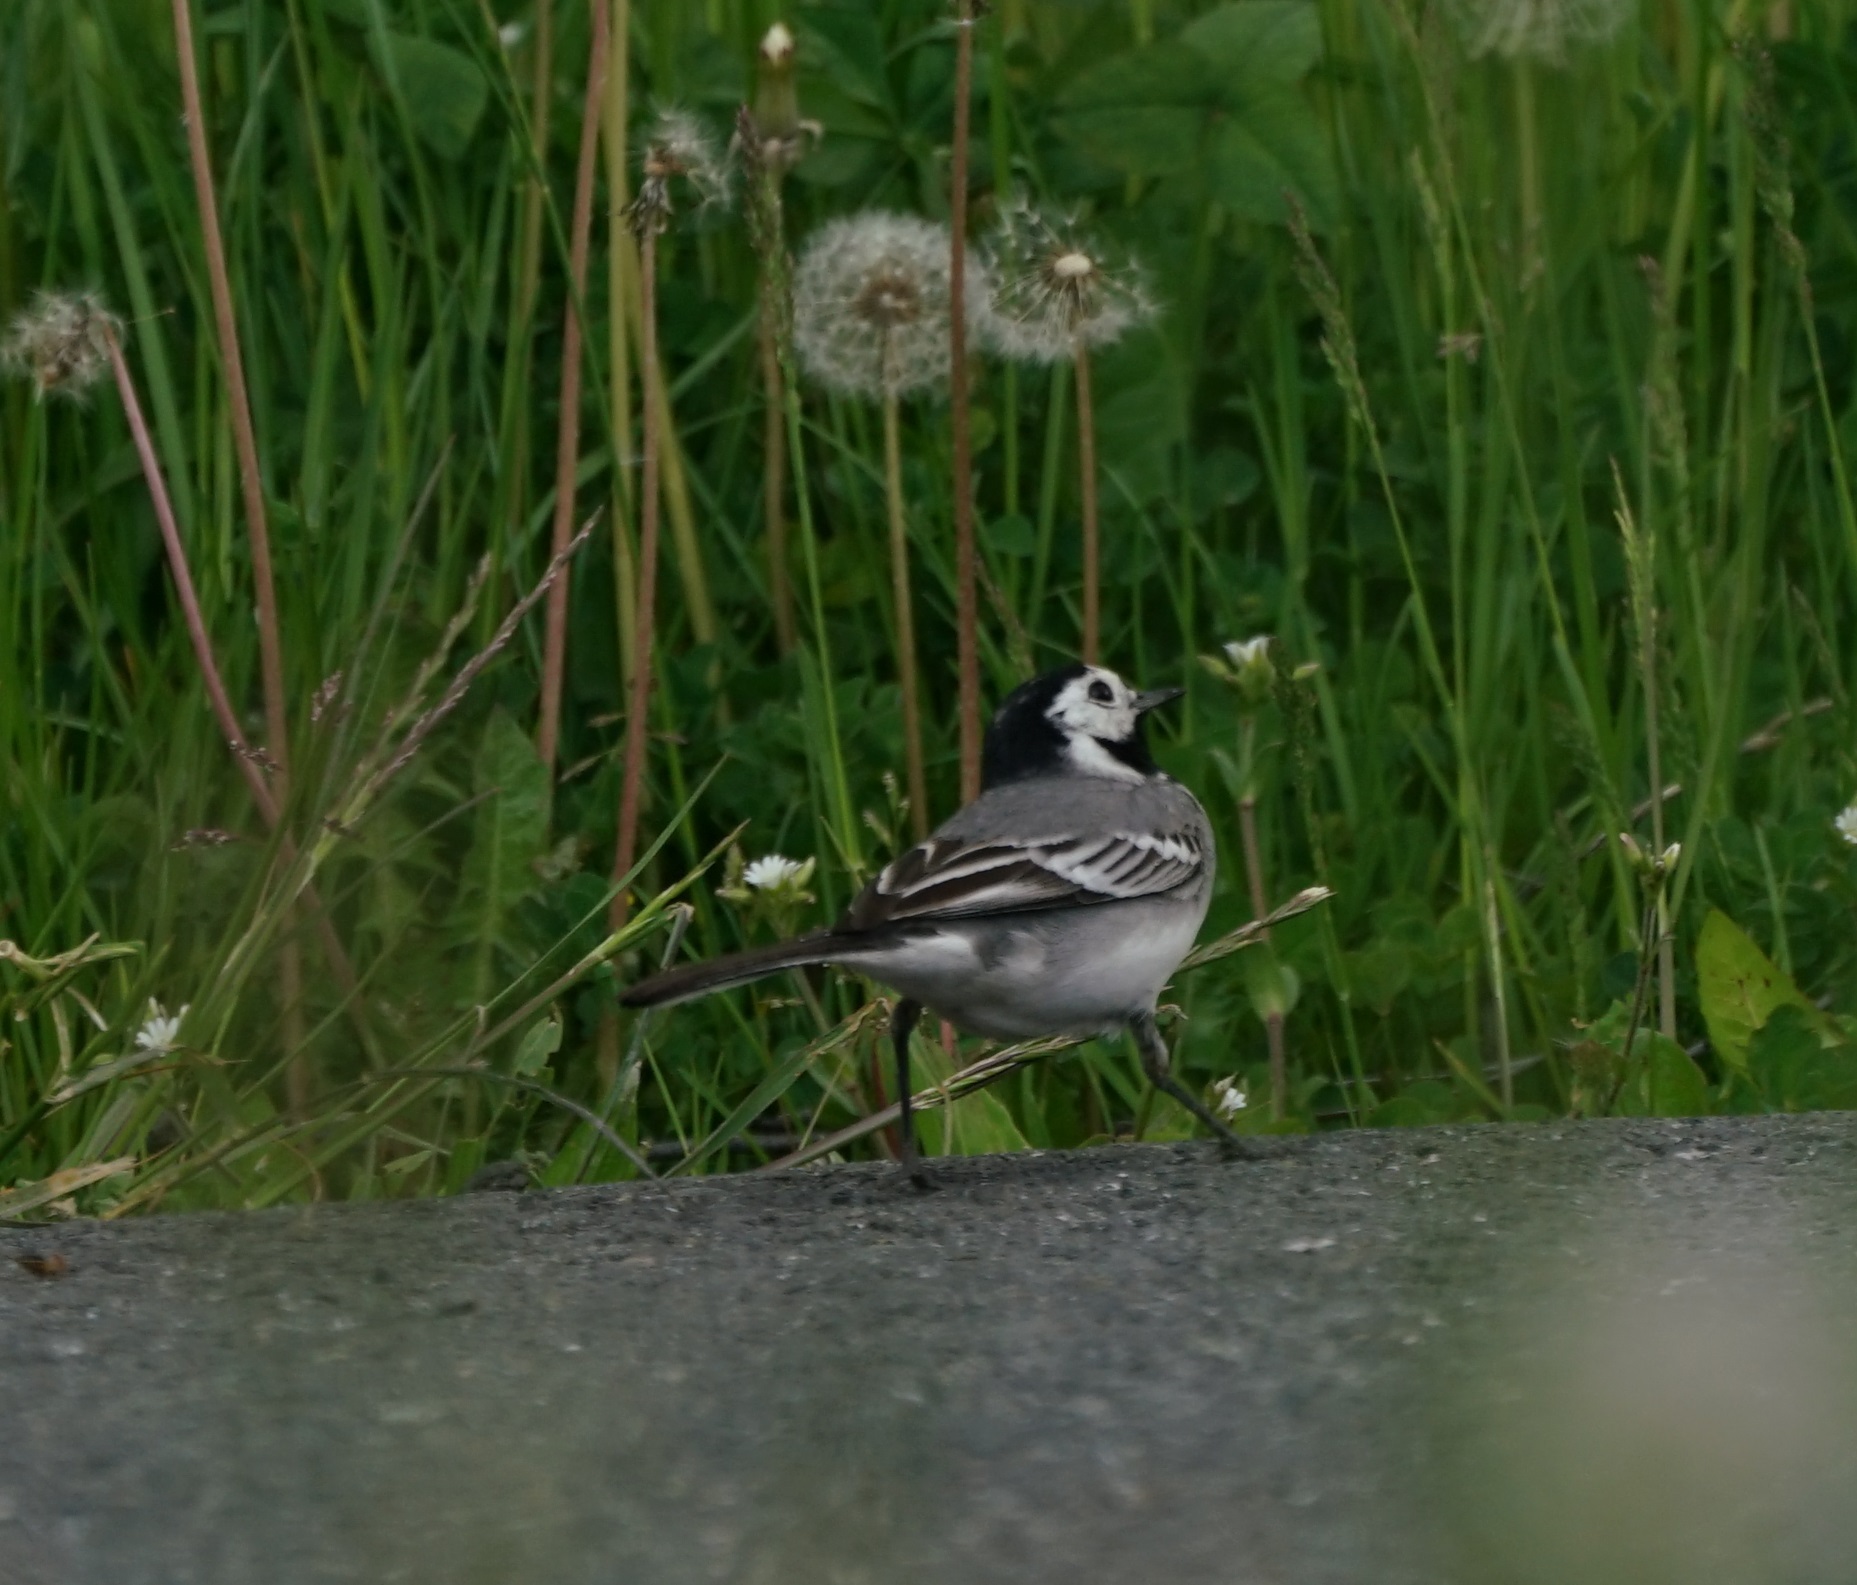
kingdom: Animalia
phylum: Chordata
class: Aves
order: Passeriformes
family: Motacillidae
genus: Motacilla
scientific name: Motacilla alba
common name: White wagtail
